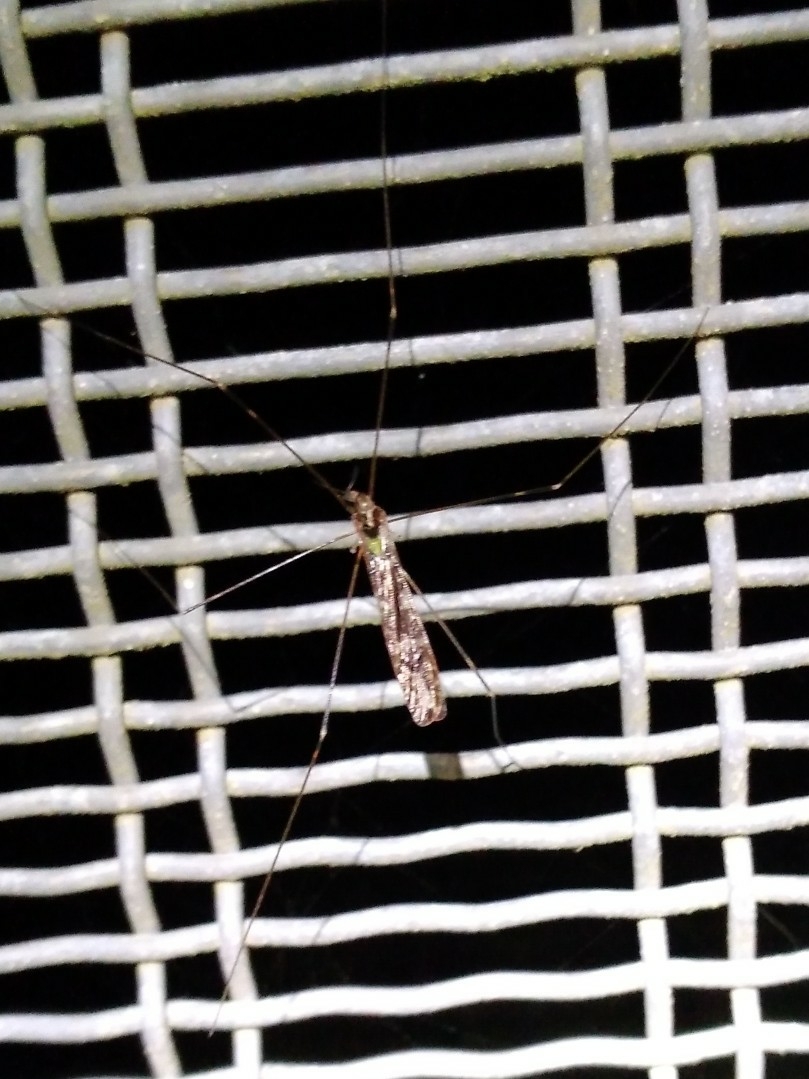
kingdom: Animalia
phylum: Arthropoda
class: Insecta
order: Diptera
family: Limoniidae
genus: Discobola
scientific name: Discobola dohrni
